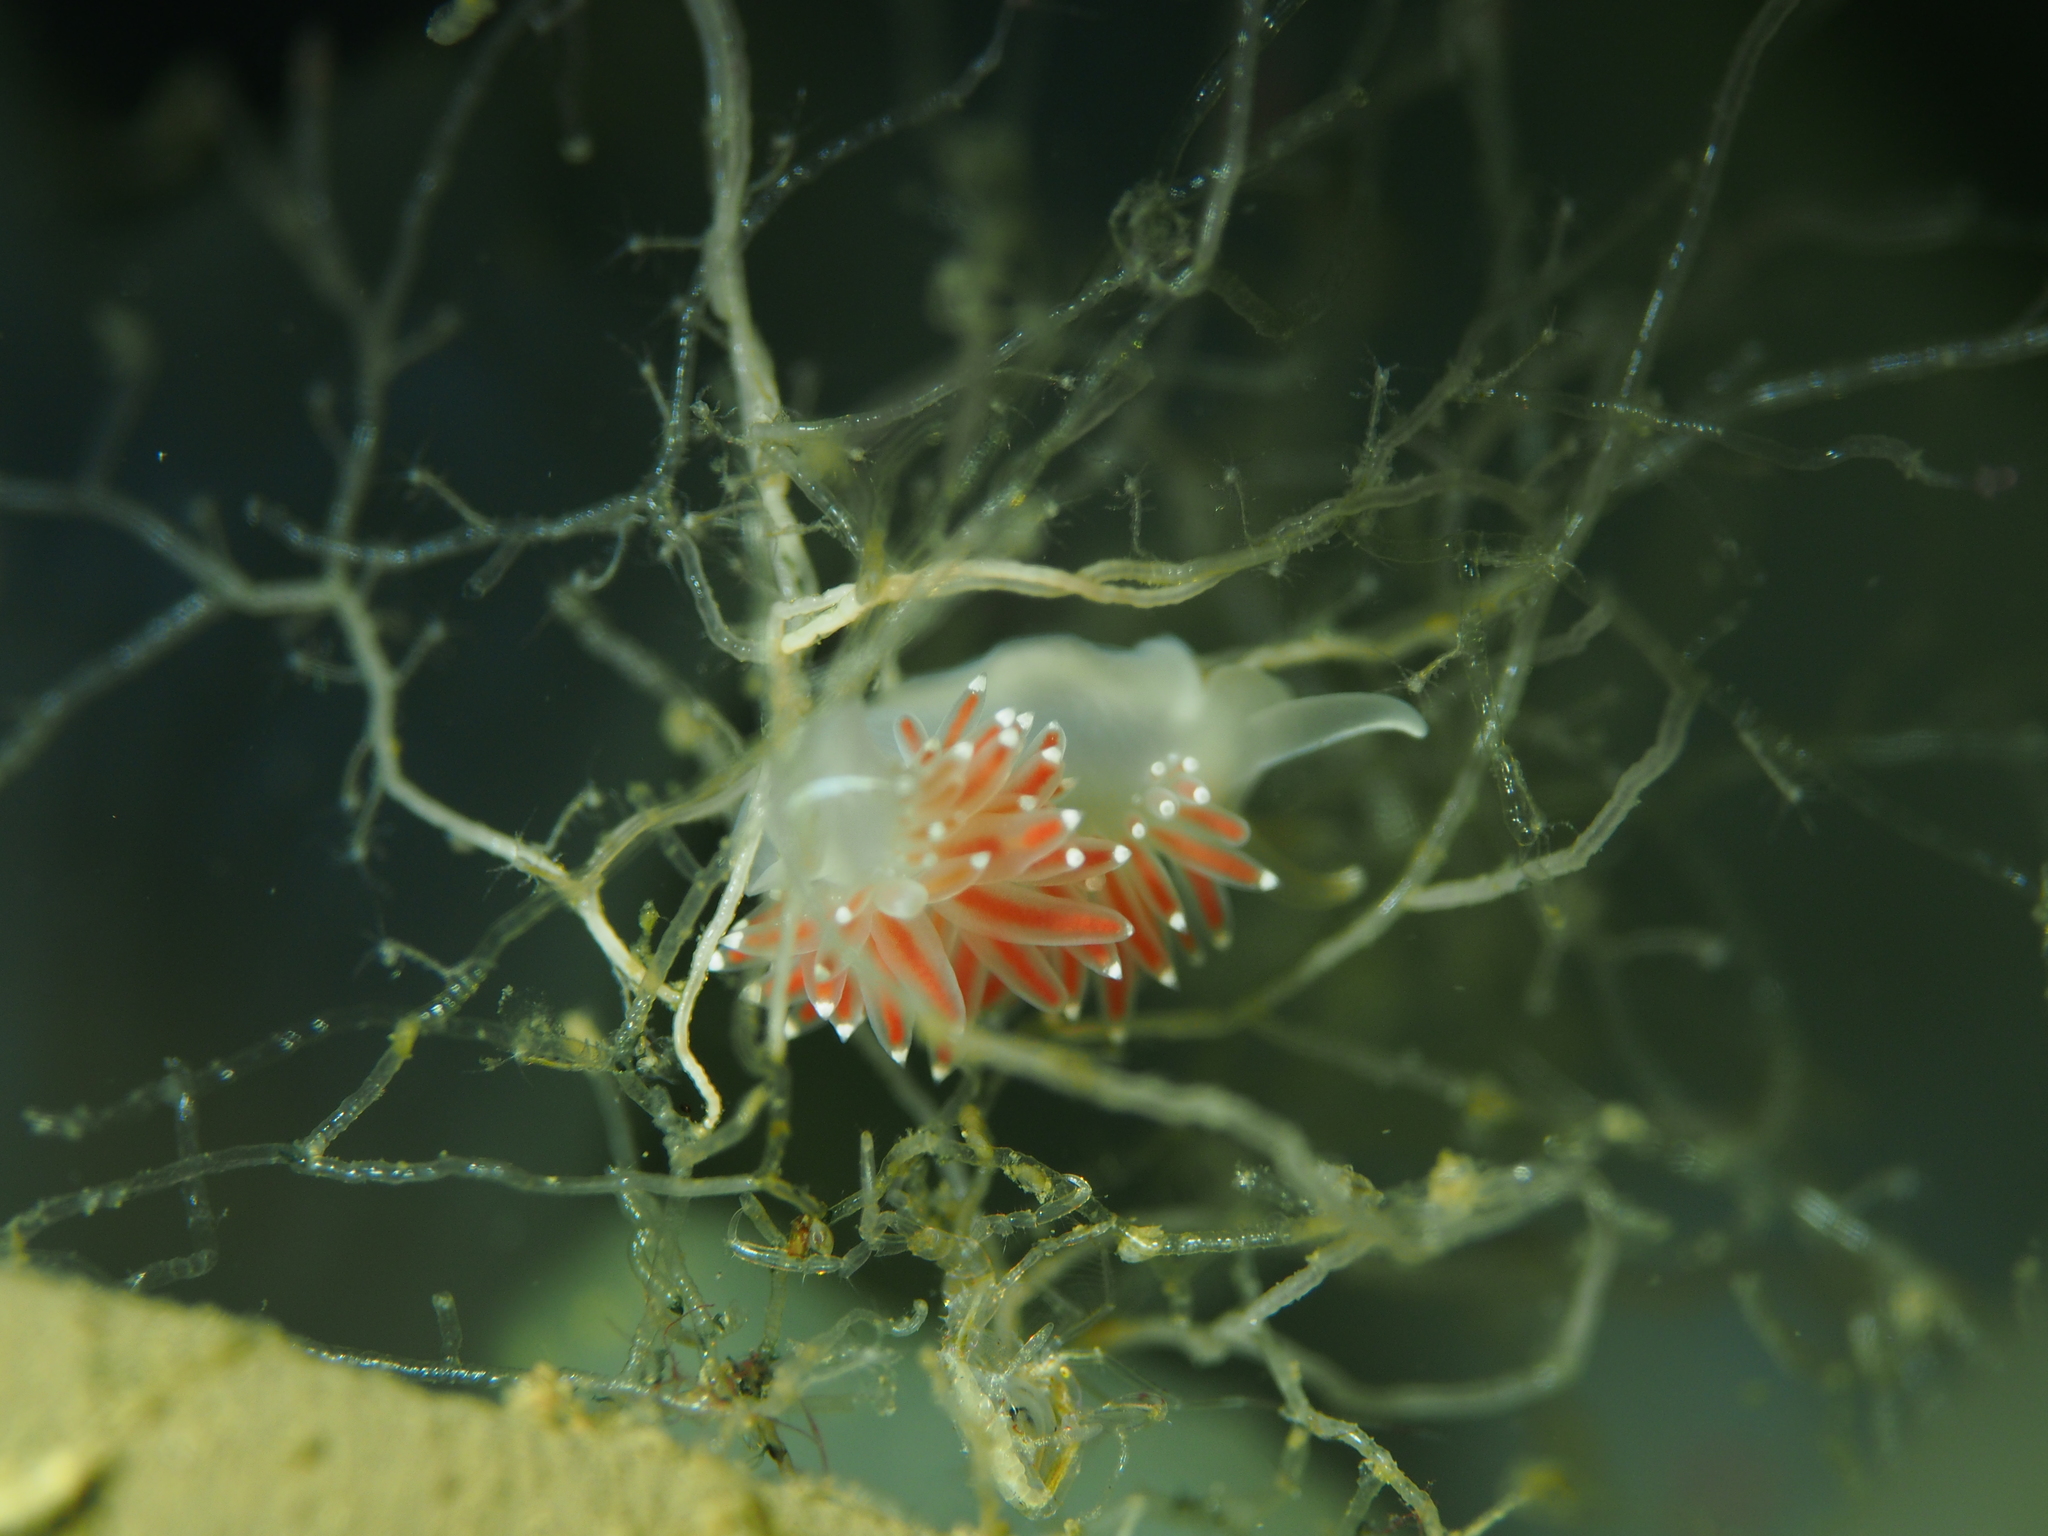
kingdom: Animalia
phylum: Mollusca
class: Gastropoda
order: Nudibranchia
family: Coryphellidae
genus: Coryphella
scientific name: Coryphella verrucosa
